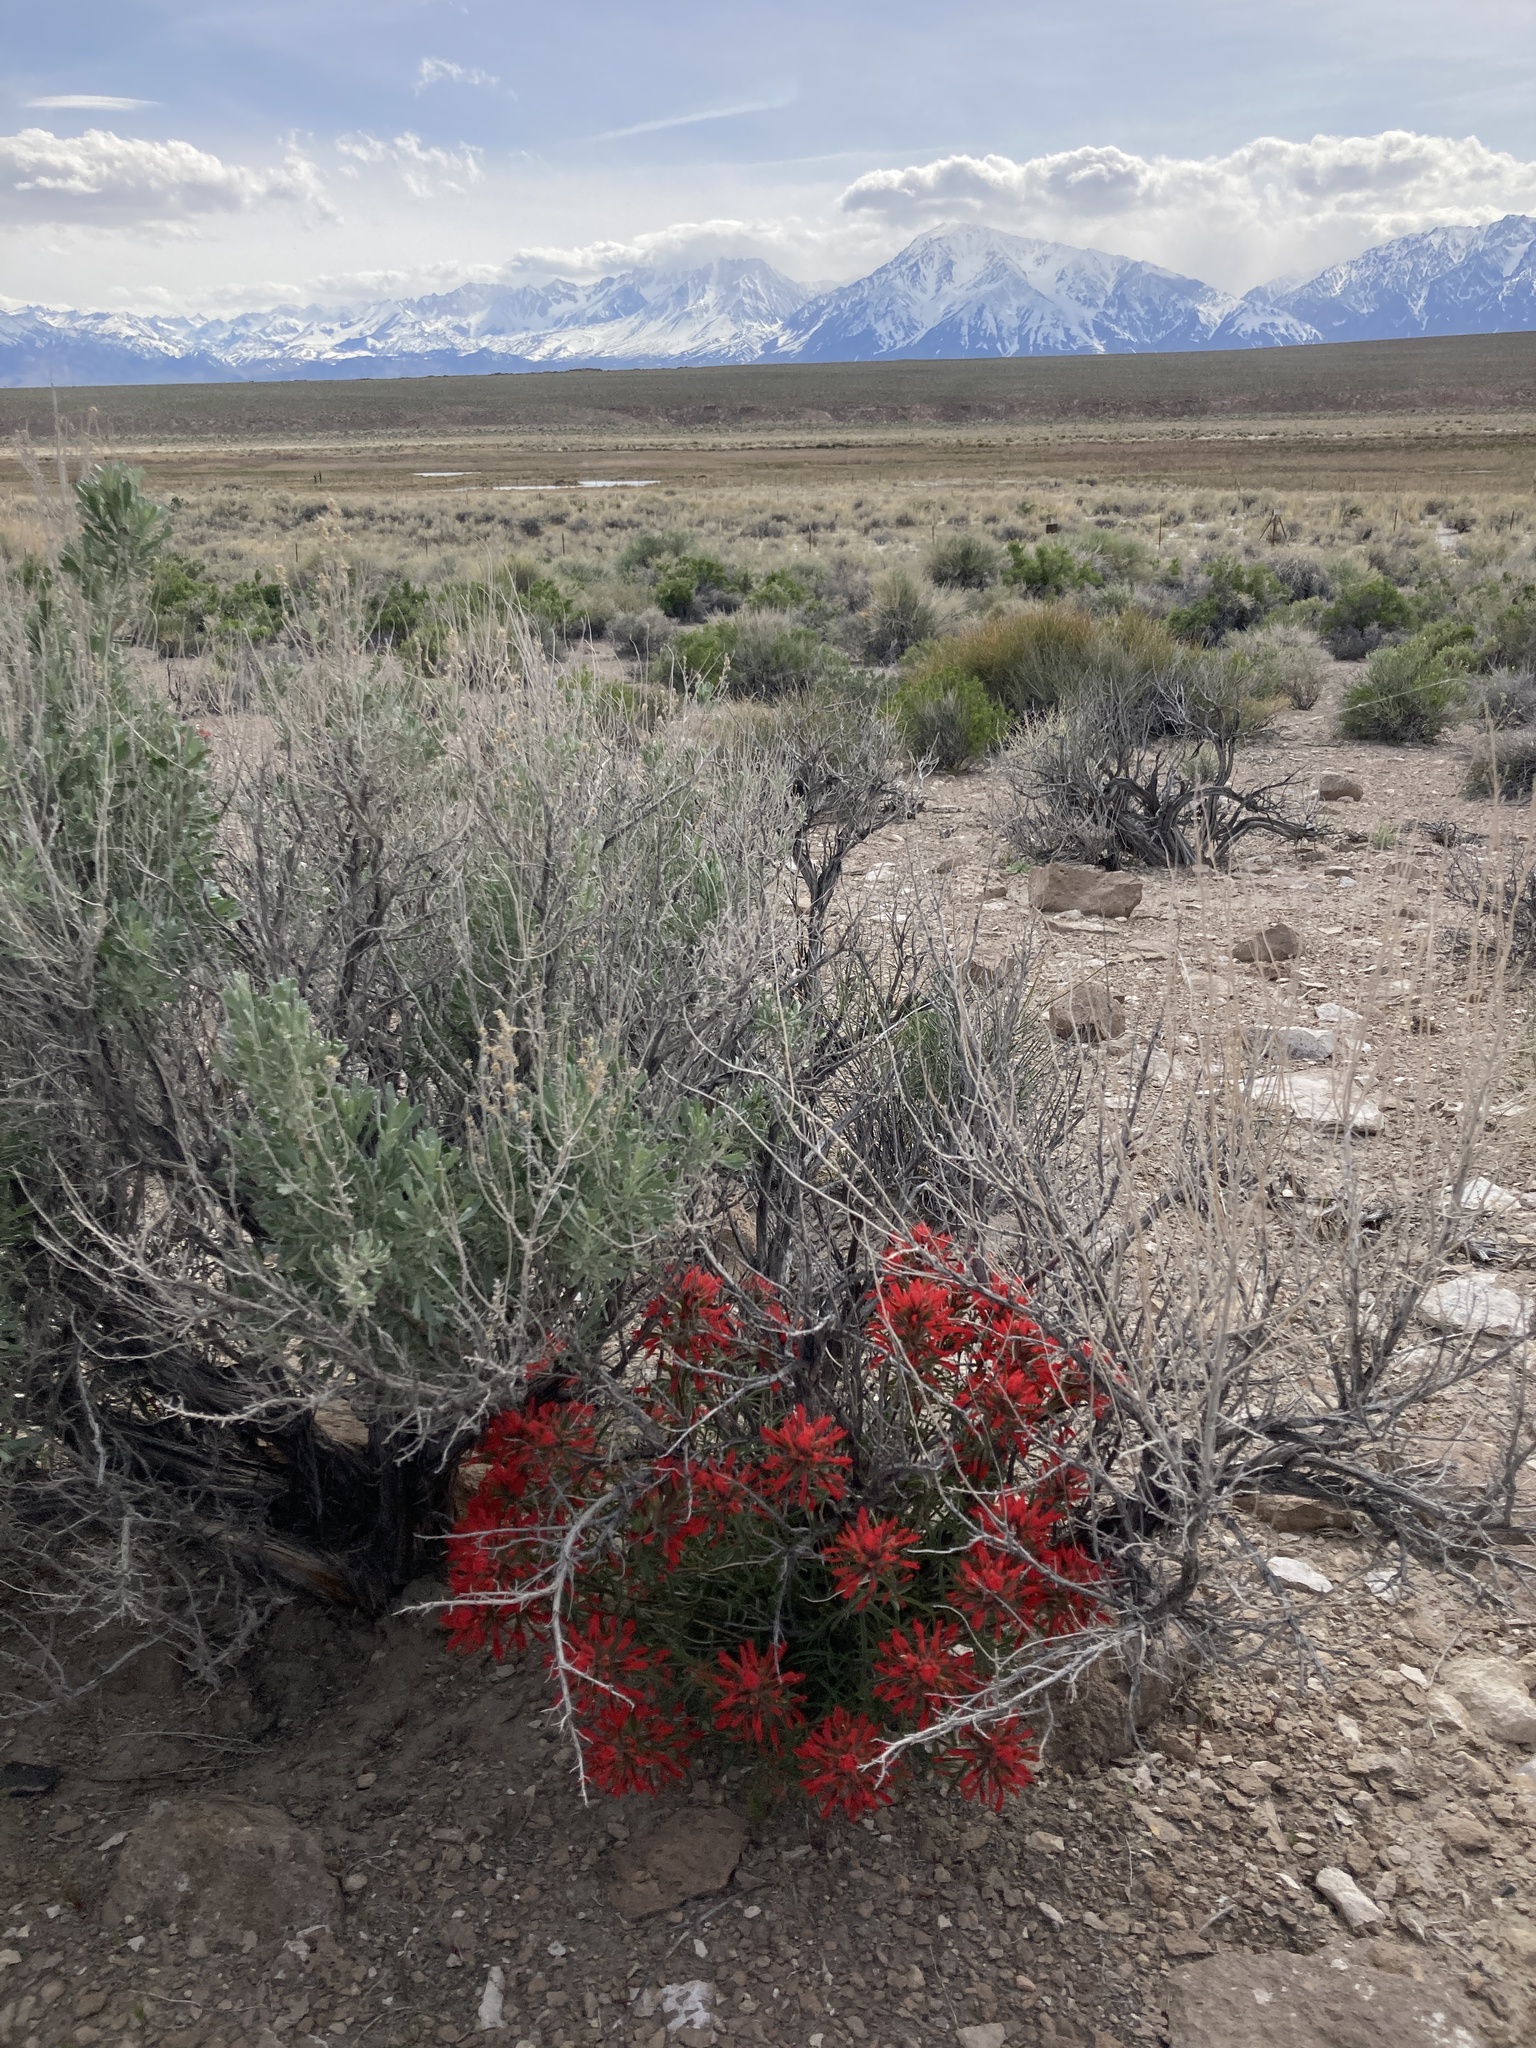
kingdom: Plantae
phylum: Tracheophyta
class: Magnoliopsida
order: Asterales
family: Asteraceae
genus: Artemisia
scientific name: Artemisia tridentata
